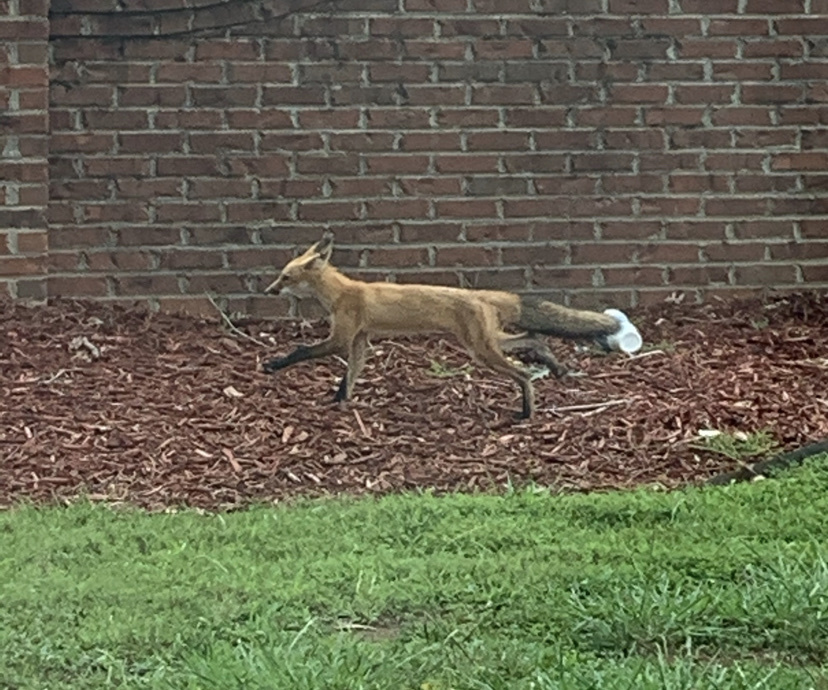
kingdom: Animalia
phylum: Chordata
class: Mammalia
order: Carnivora
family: Canidae
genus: Vulpes
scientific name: Vulpes vulpes
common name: Red fox
